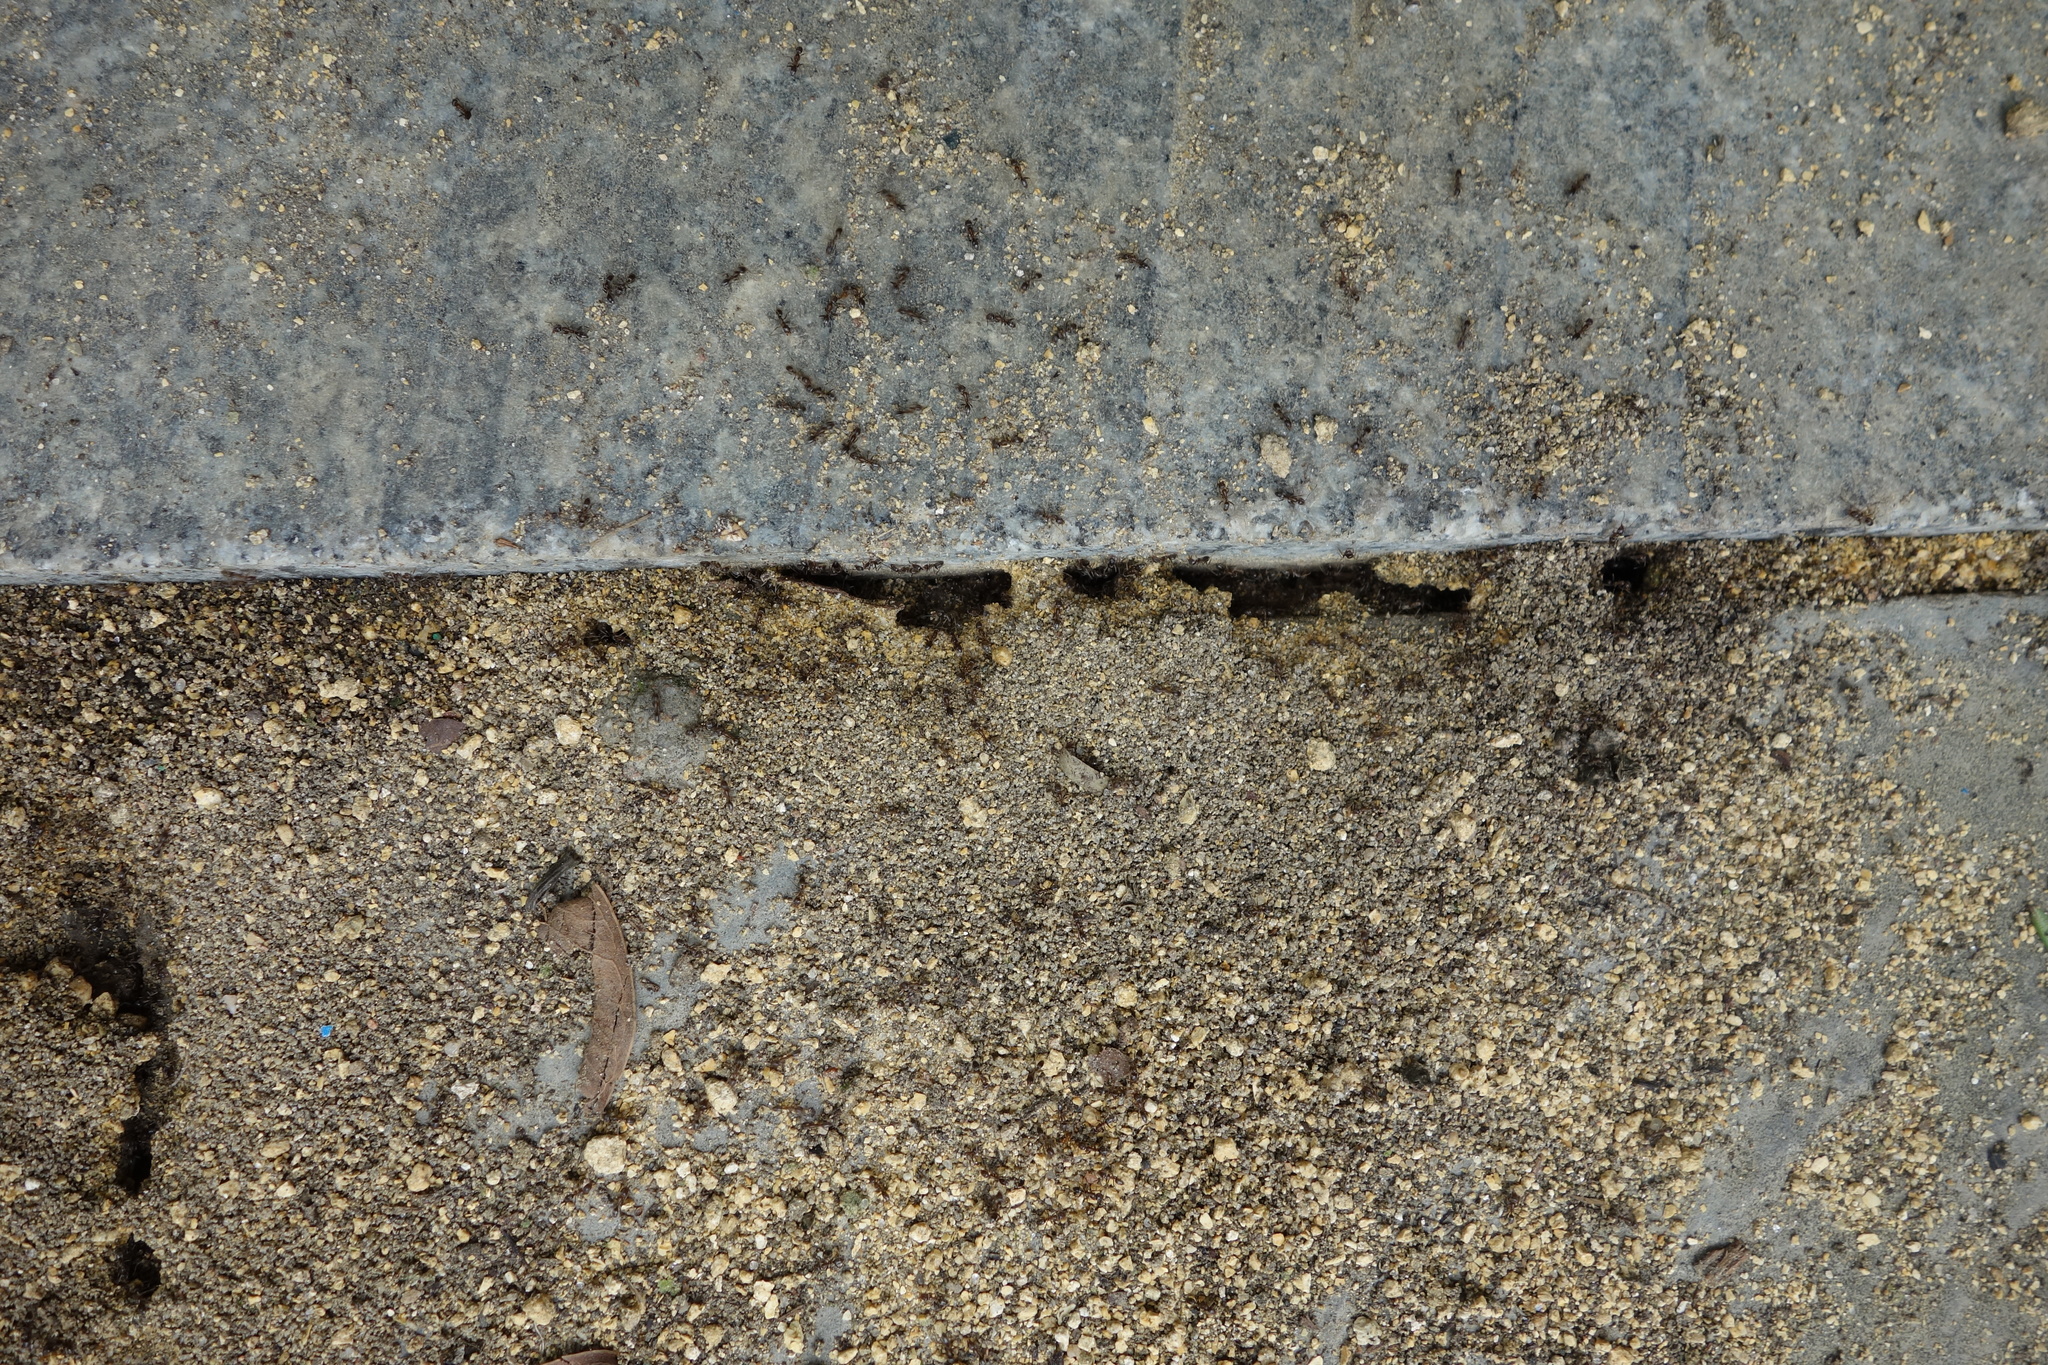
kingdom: Animalia
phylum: Arthropoda
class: Insecta
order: Hymenoptera
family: Formicidae
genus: Linepithema
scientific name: Linepithema humile
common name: Argentine ant
